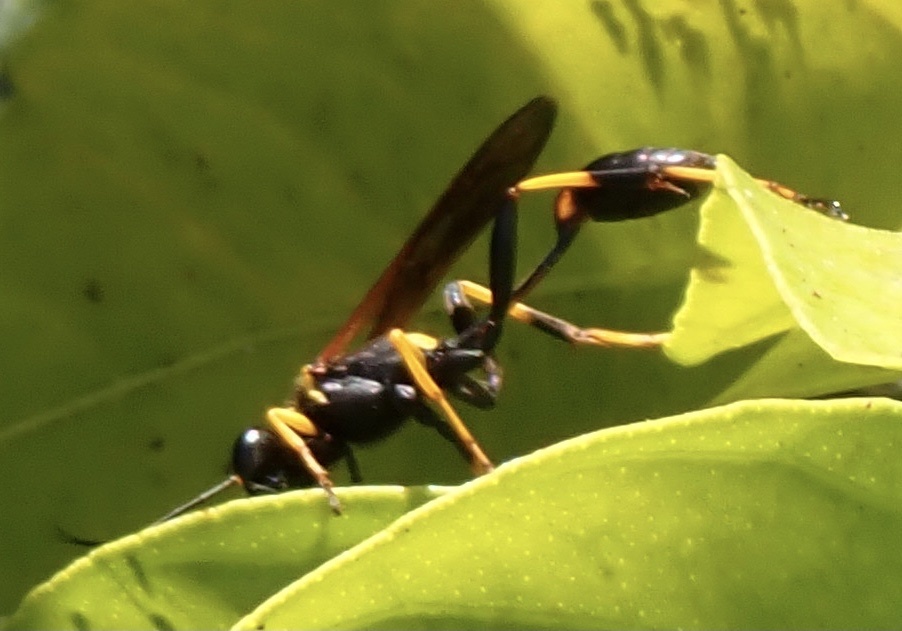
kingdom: Animalia
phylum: Arthropoda
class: Insecta
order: Hymenoptera
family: Sphecidae
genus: Sceliphron
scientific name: Sceliphron caementarium
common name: Mud dauber
